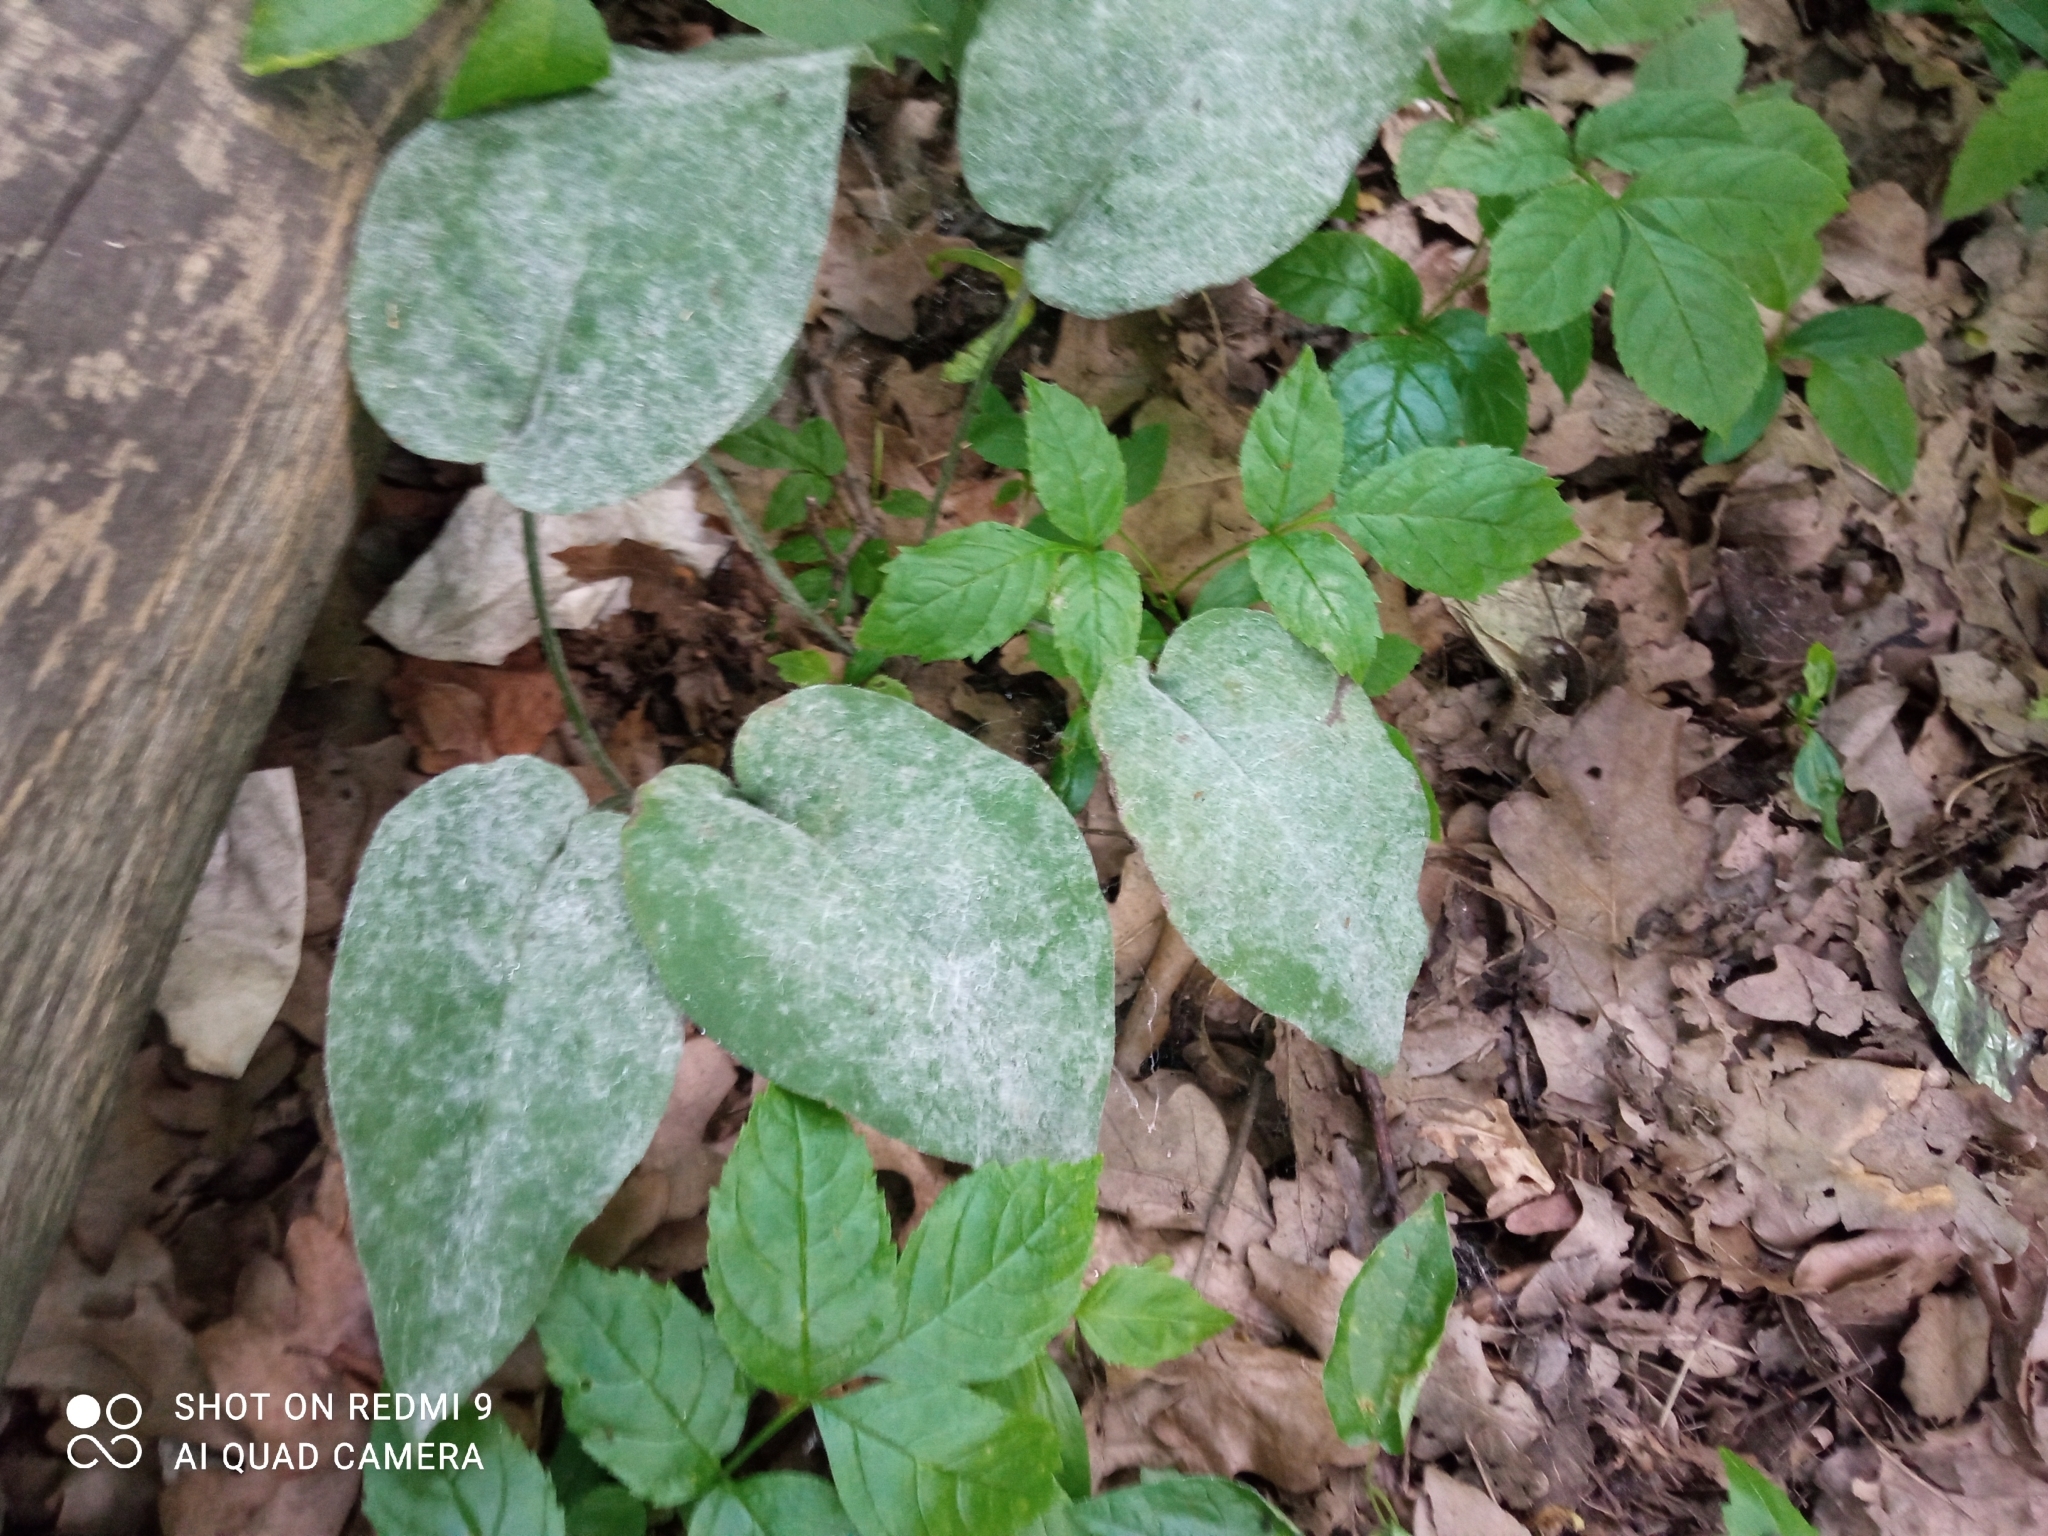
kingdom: Plantae
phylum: Tracheophyta
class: Magnoliopsida
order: Boraginales
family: Boraginaceae
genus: Pulmonaria
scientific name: Pulmonaria obscura
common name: Suffolk lungwort
